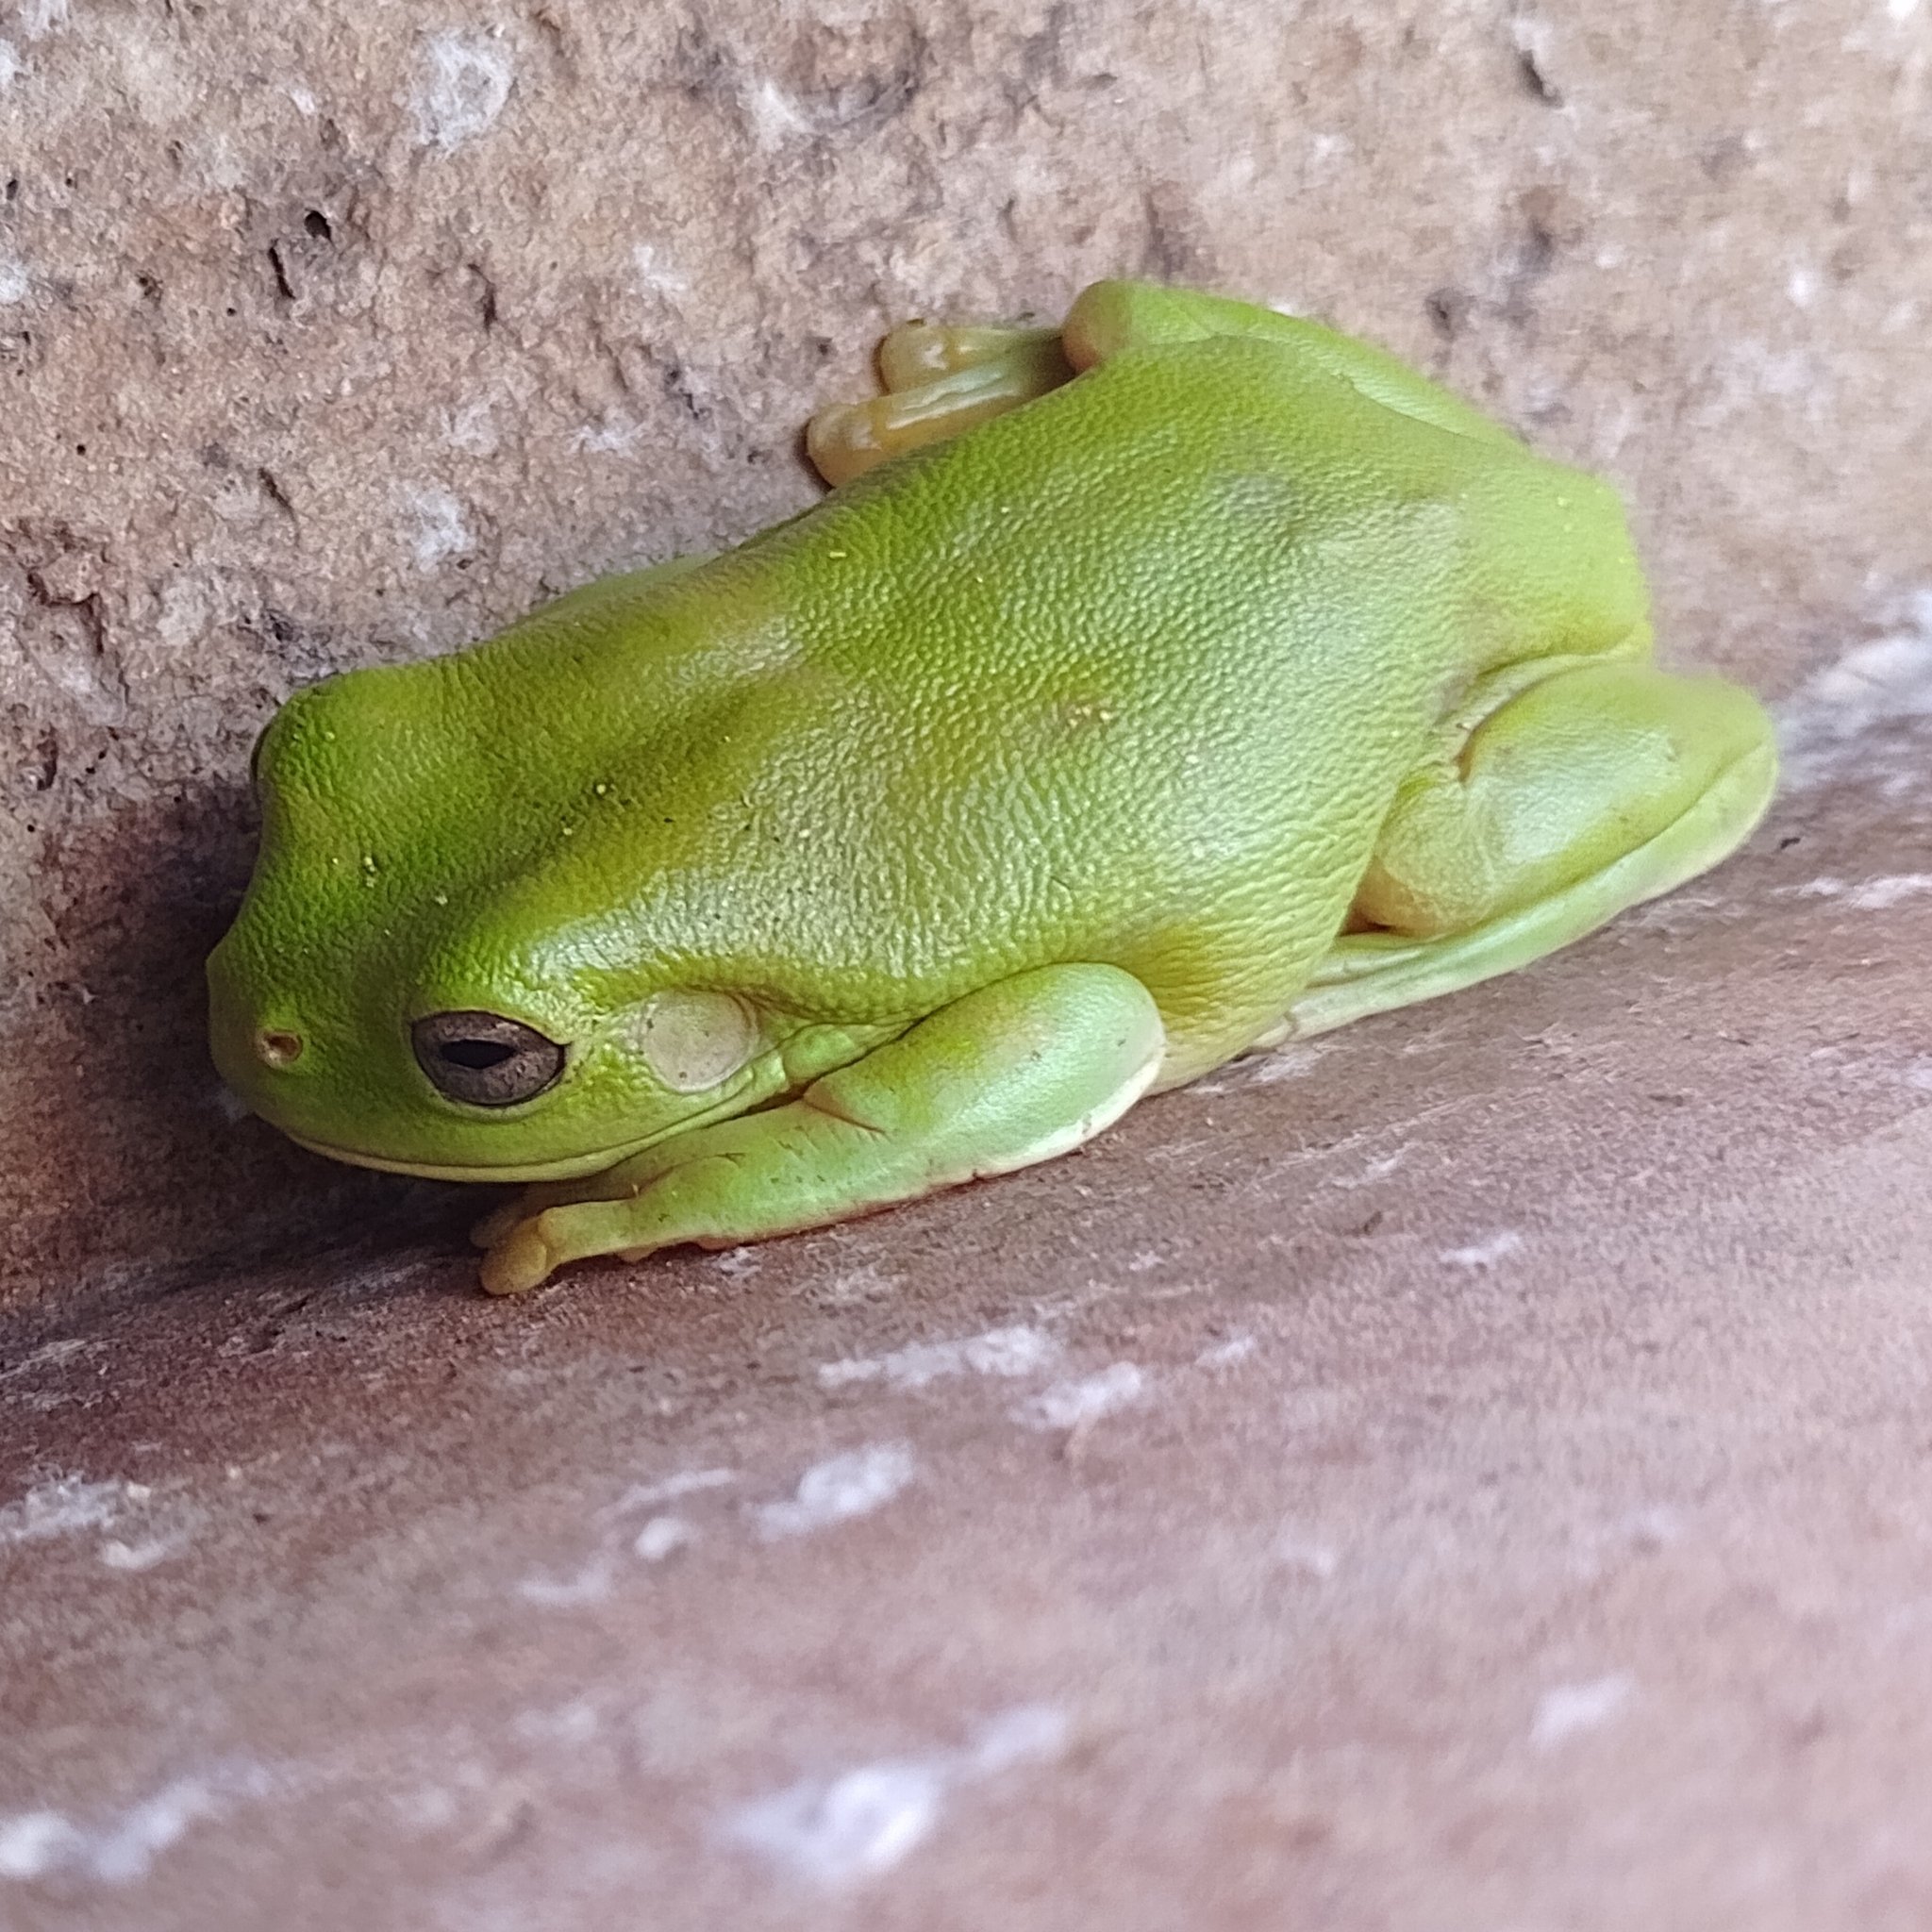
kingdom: Animalia
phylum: Chordata
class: Amphibia
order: Anura
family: Pelodryadidae
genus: Ranoidea
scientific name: Ranoidea caerulea
